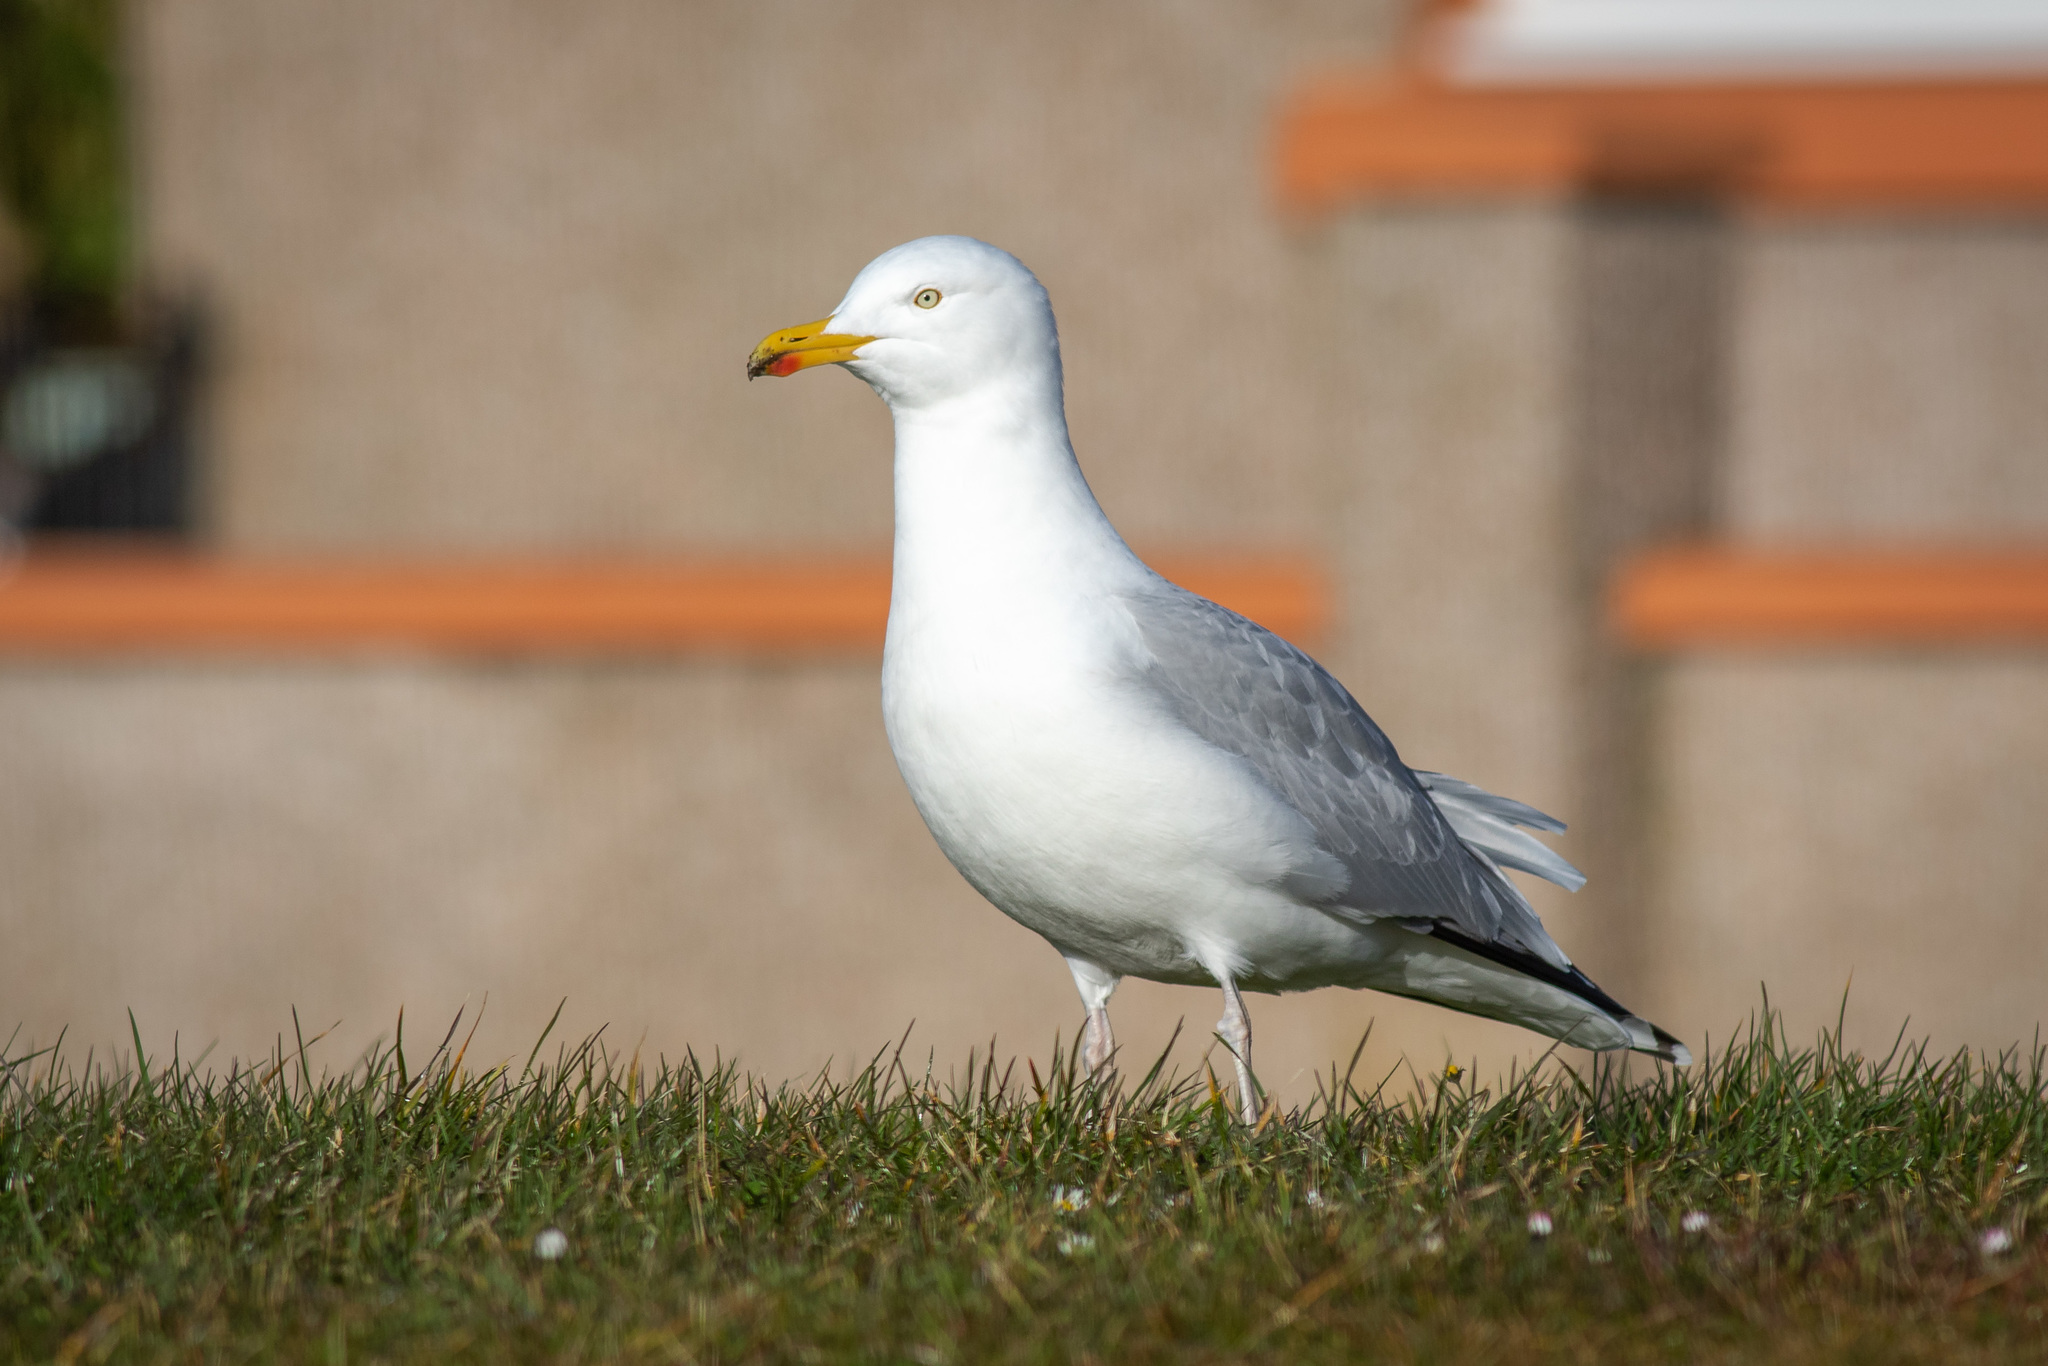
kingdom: Animalia
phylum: Chordata
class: Aves
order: Charadriiformes
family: Laridae
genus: Larus
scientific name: Larus argentatus
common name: Herring gull
